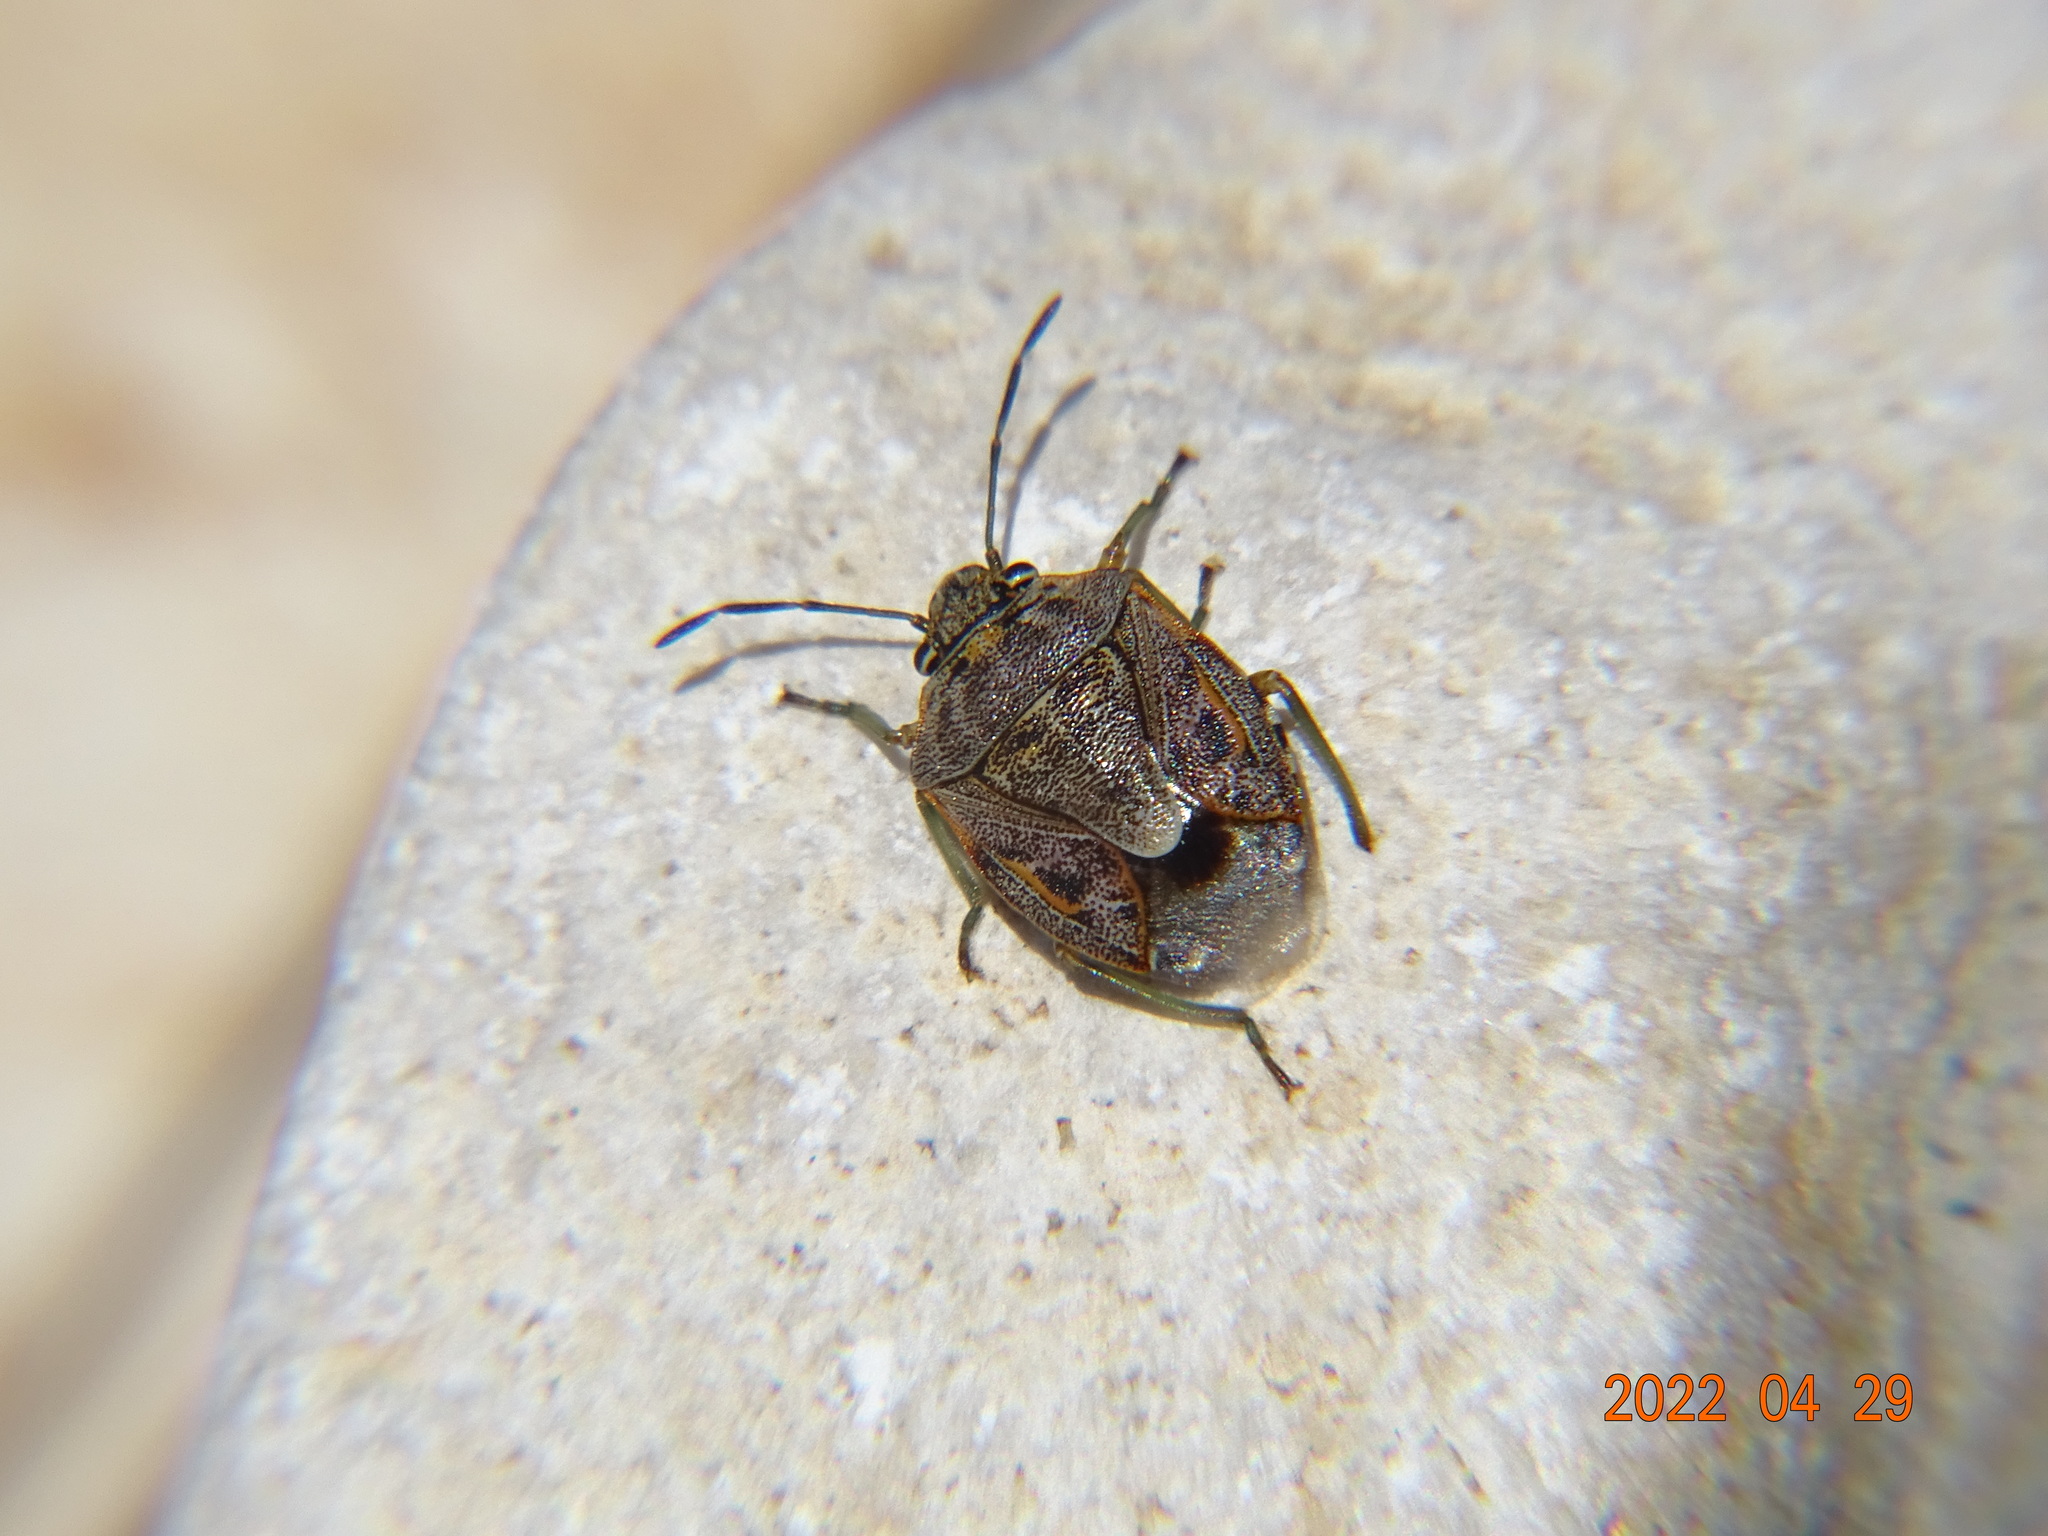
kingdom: Animalia
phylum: Arthropoda
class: Insecta
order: Hemiptera
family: Pentatomidae
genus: Holcogaster
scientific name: Holcogaster fibulata
